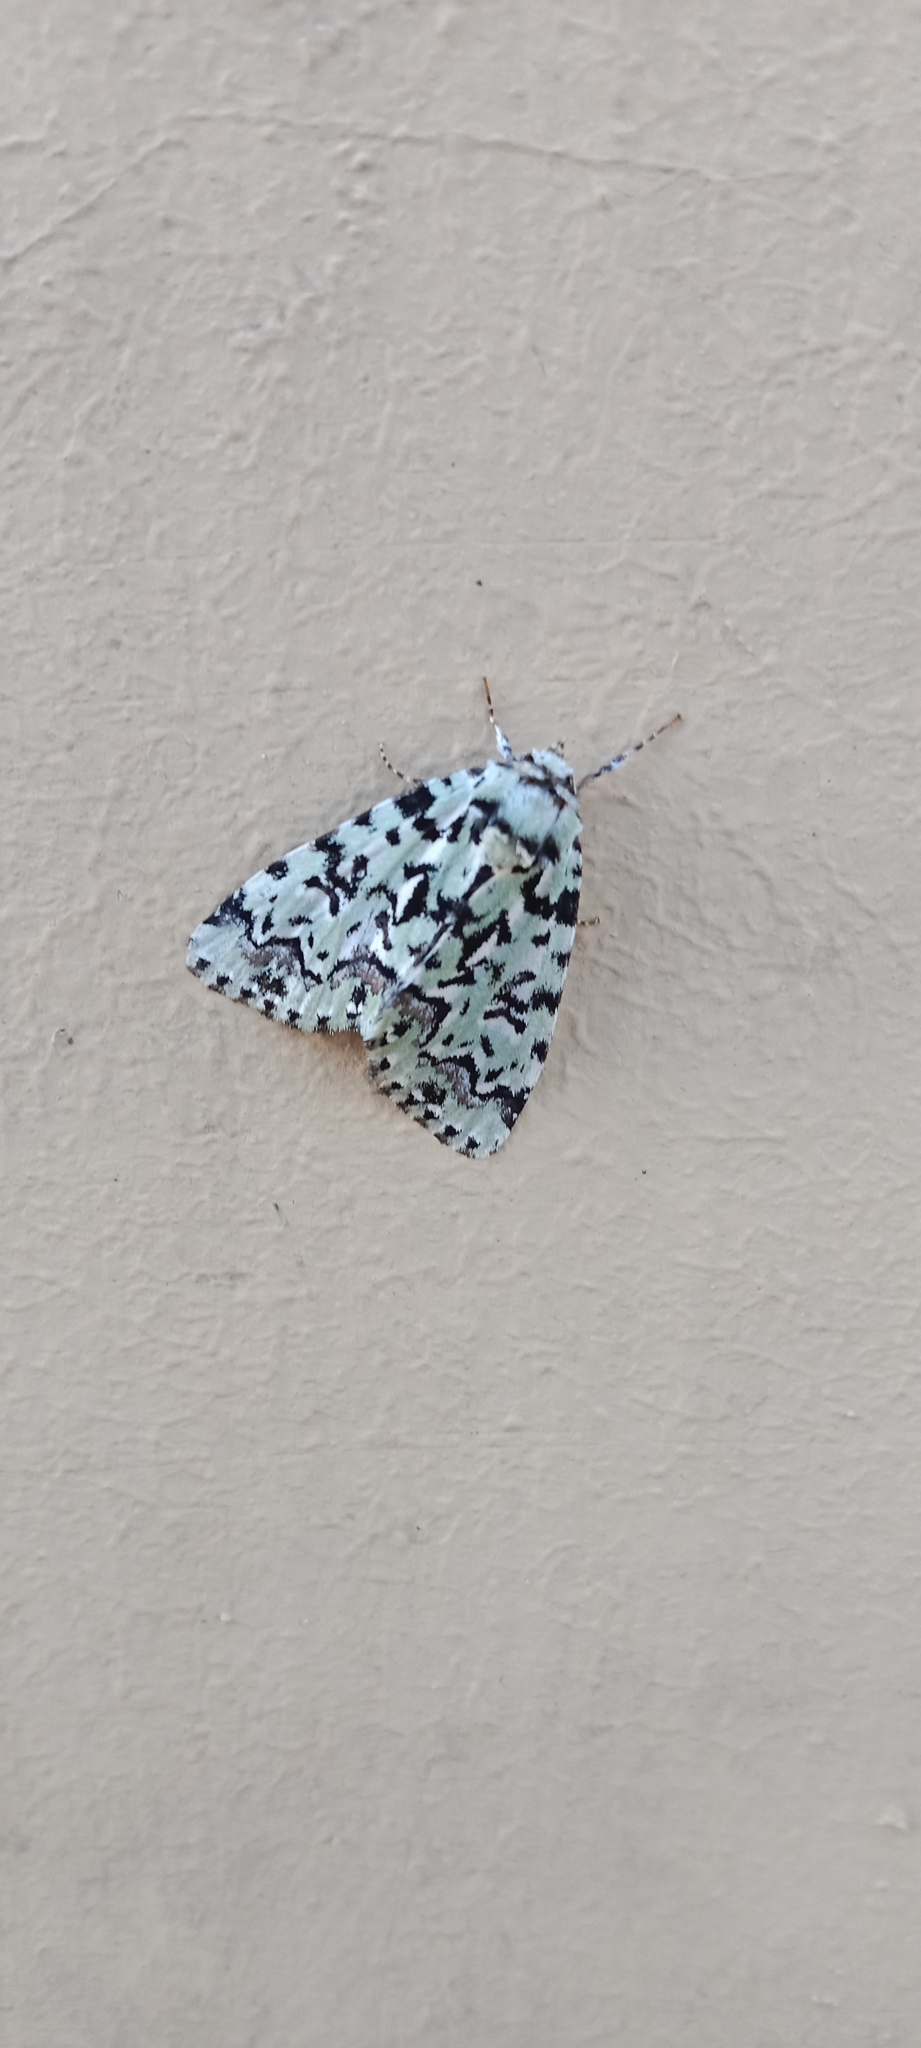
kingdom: Animalia
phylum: Arthropoda
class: Insecta
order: Lepidoptera
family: Noctuidae
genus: Moma
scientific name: Moma alpium
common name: Scarce merveille du jour
